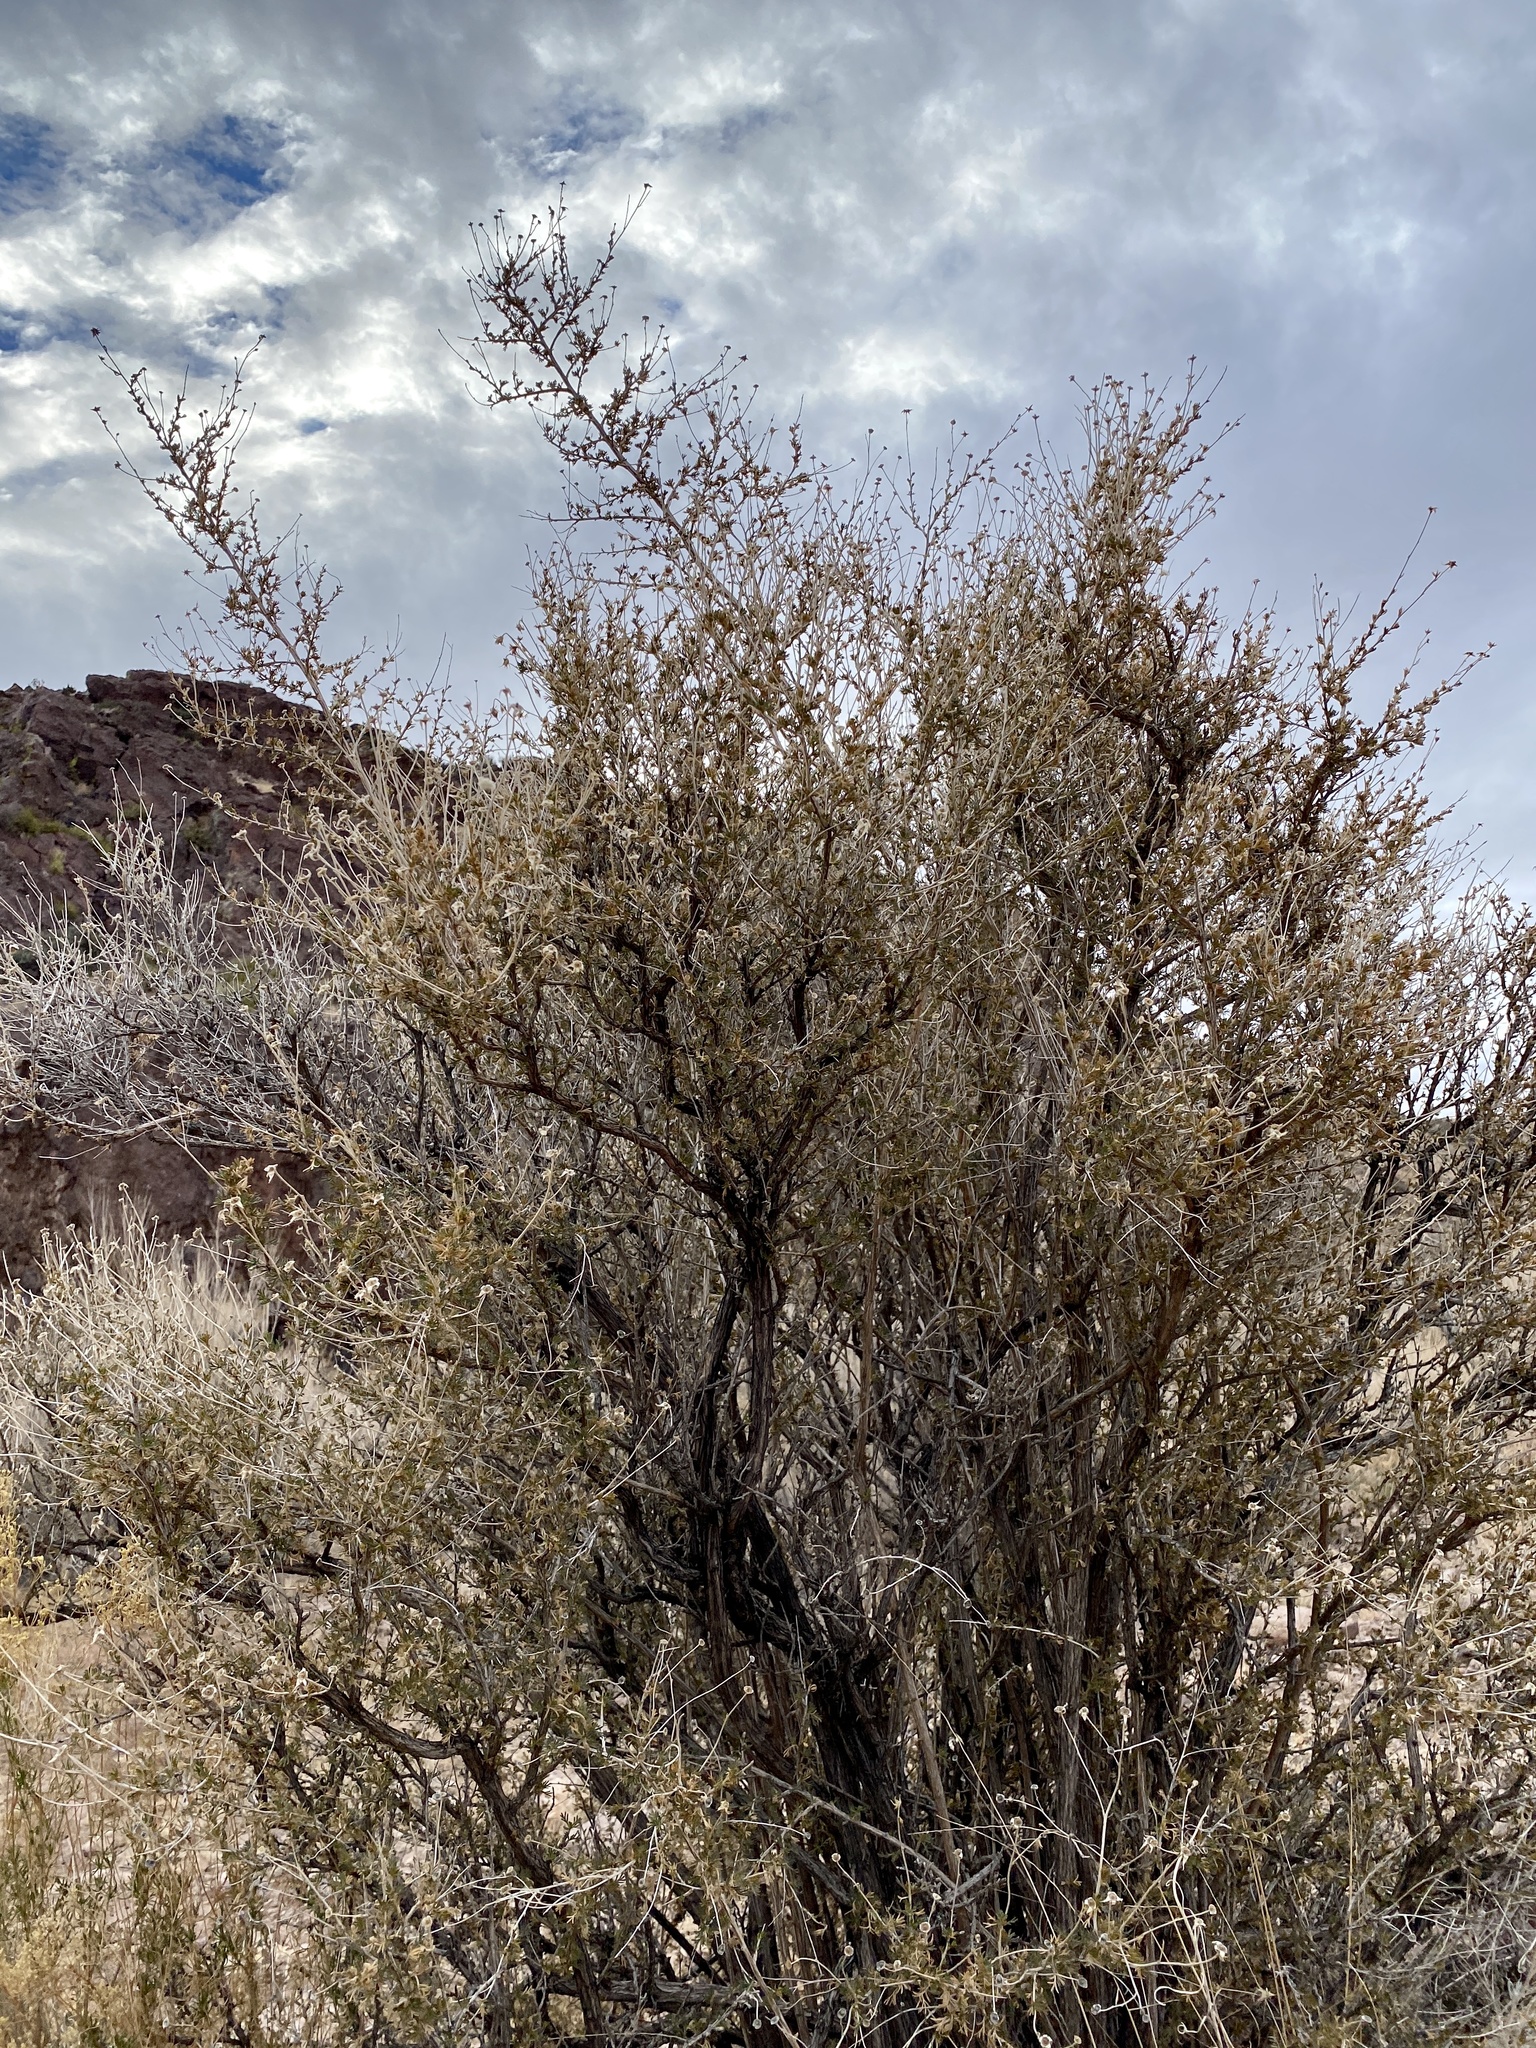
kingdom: Plantae
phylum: Tracheophyta
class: Magnoliopsida
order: Rosales
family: Rosaceae
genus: Fallugia
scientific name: Fallugia paradoxa
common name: Apache-plume
